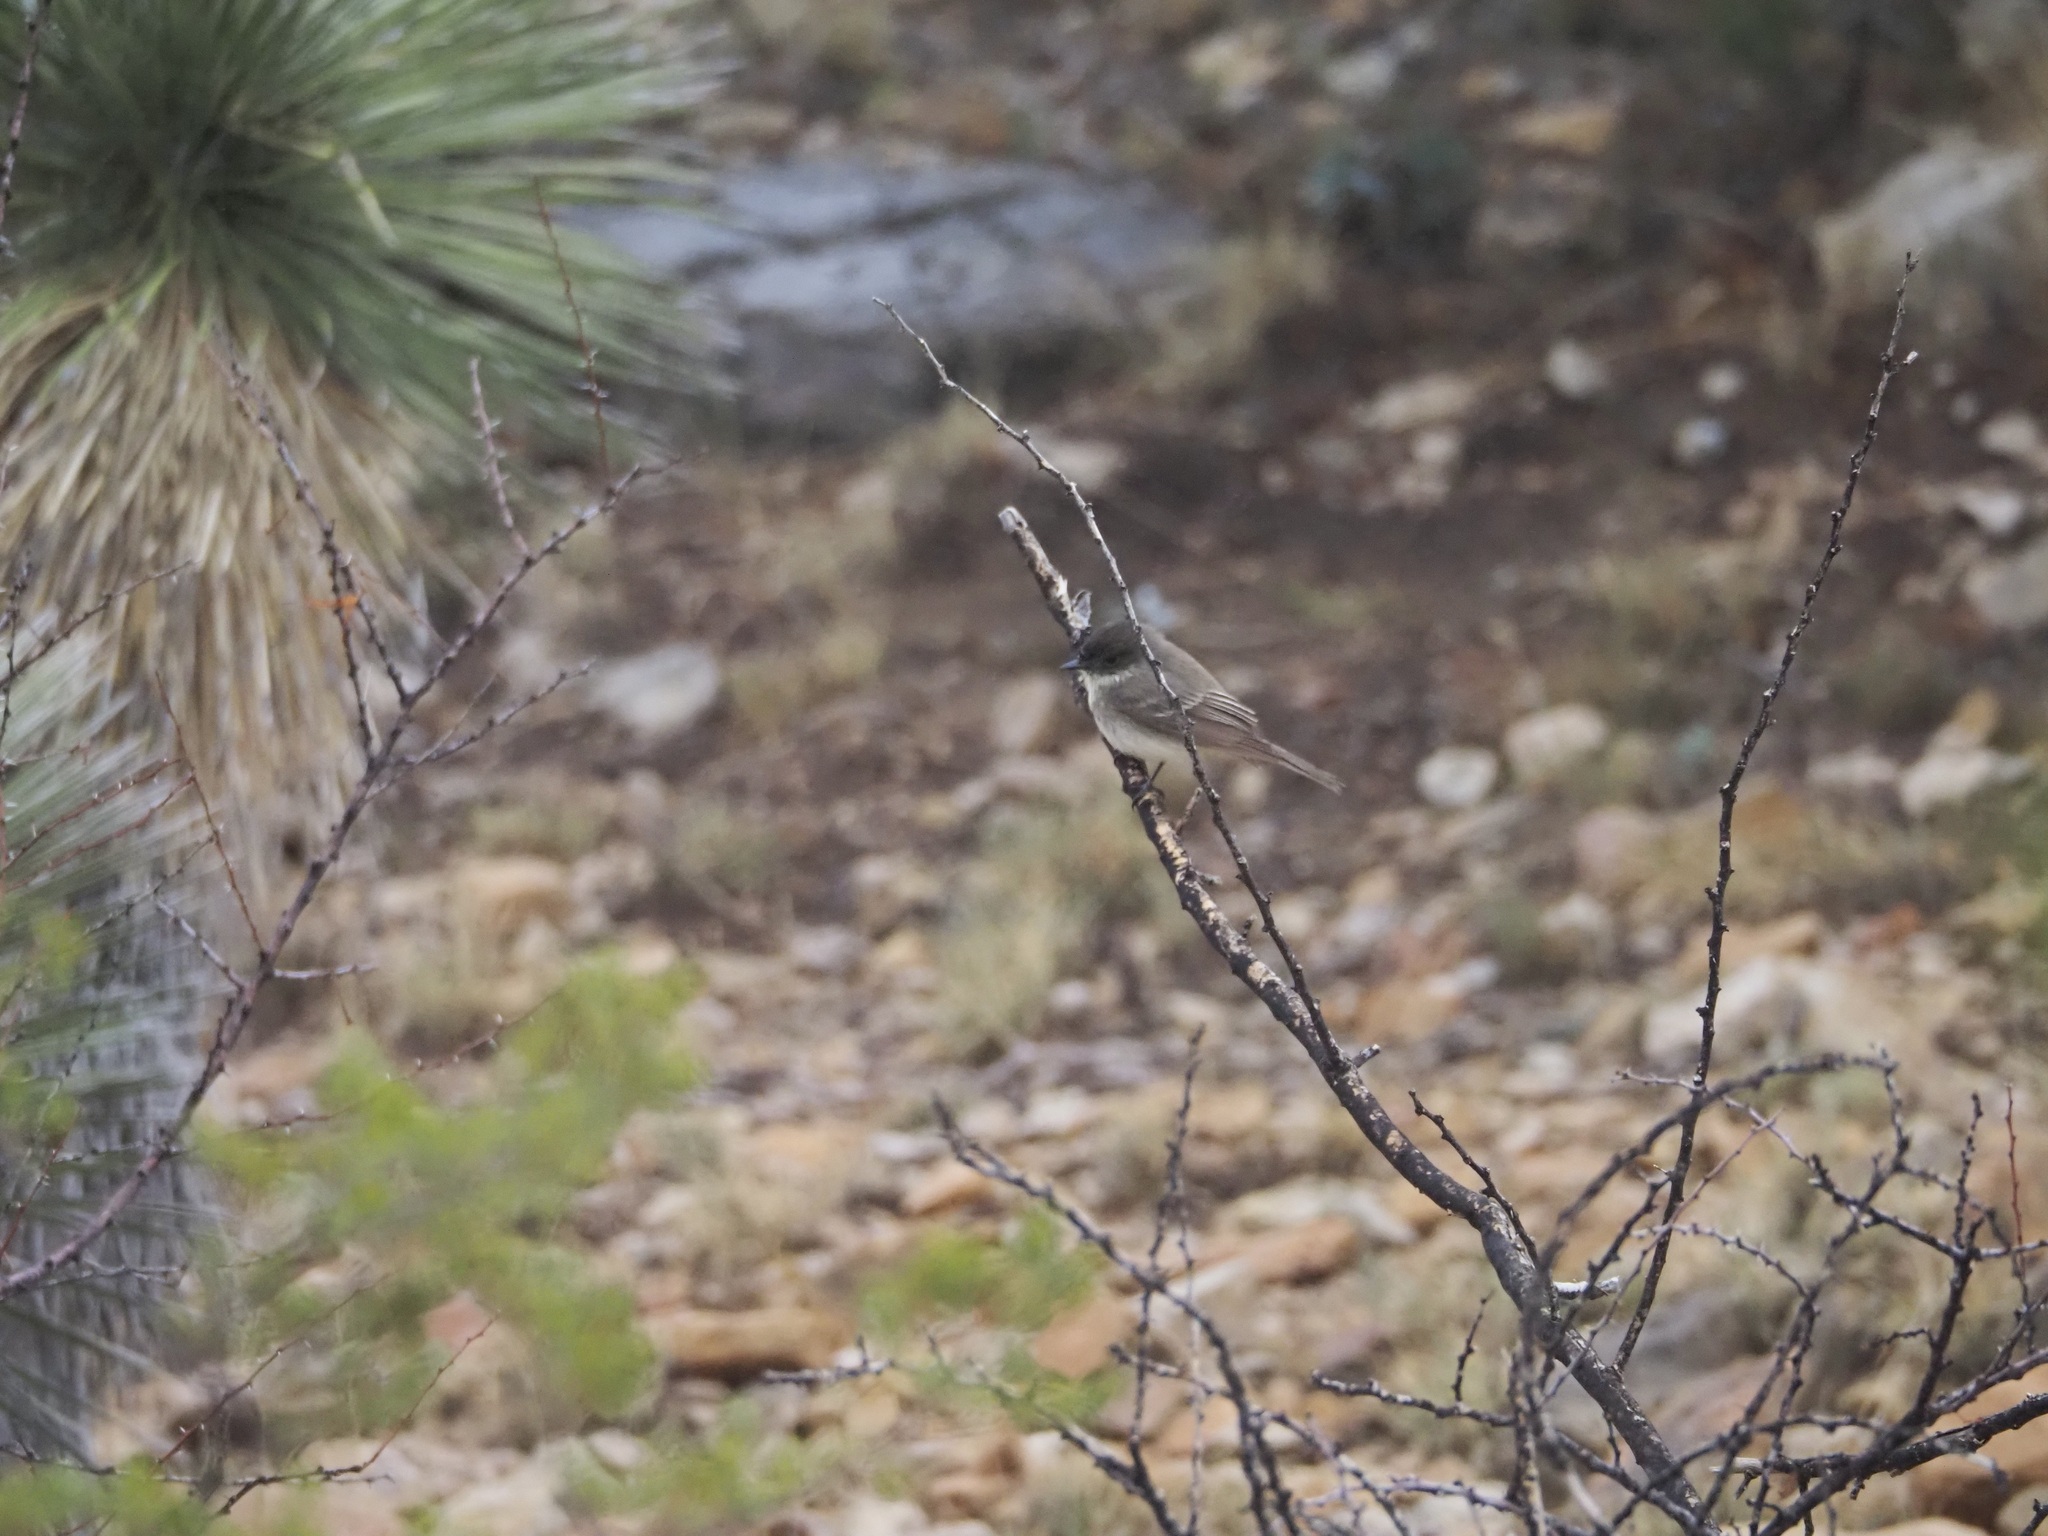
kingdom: Animalia
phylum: Chordata
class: Aves
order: Passeriformes
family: Tyrannidae
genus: Sayornis
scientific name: Sayornis phoebe
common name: Eastern phoebe
